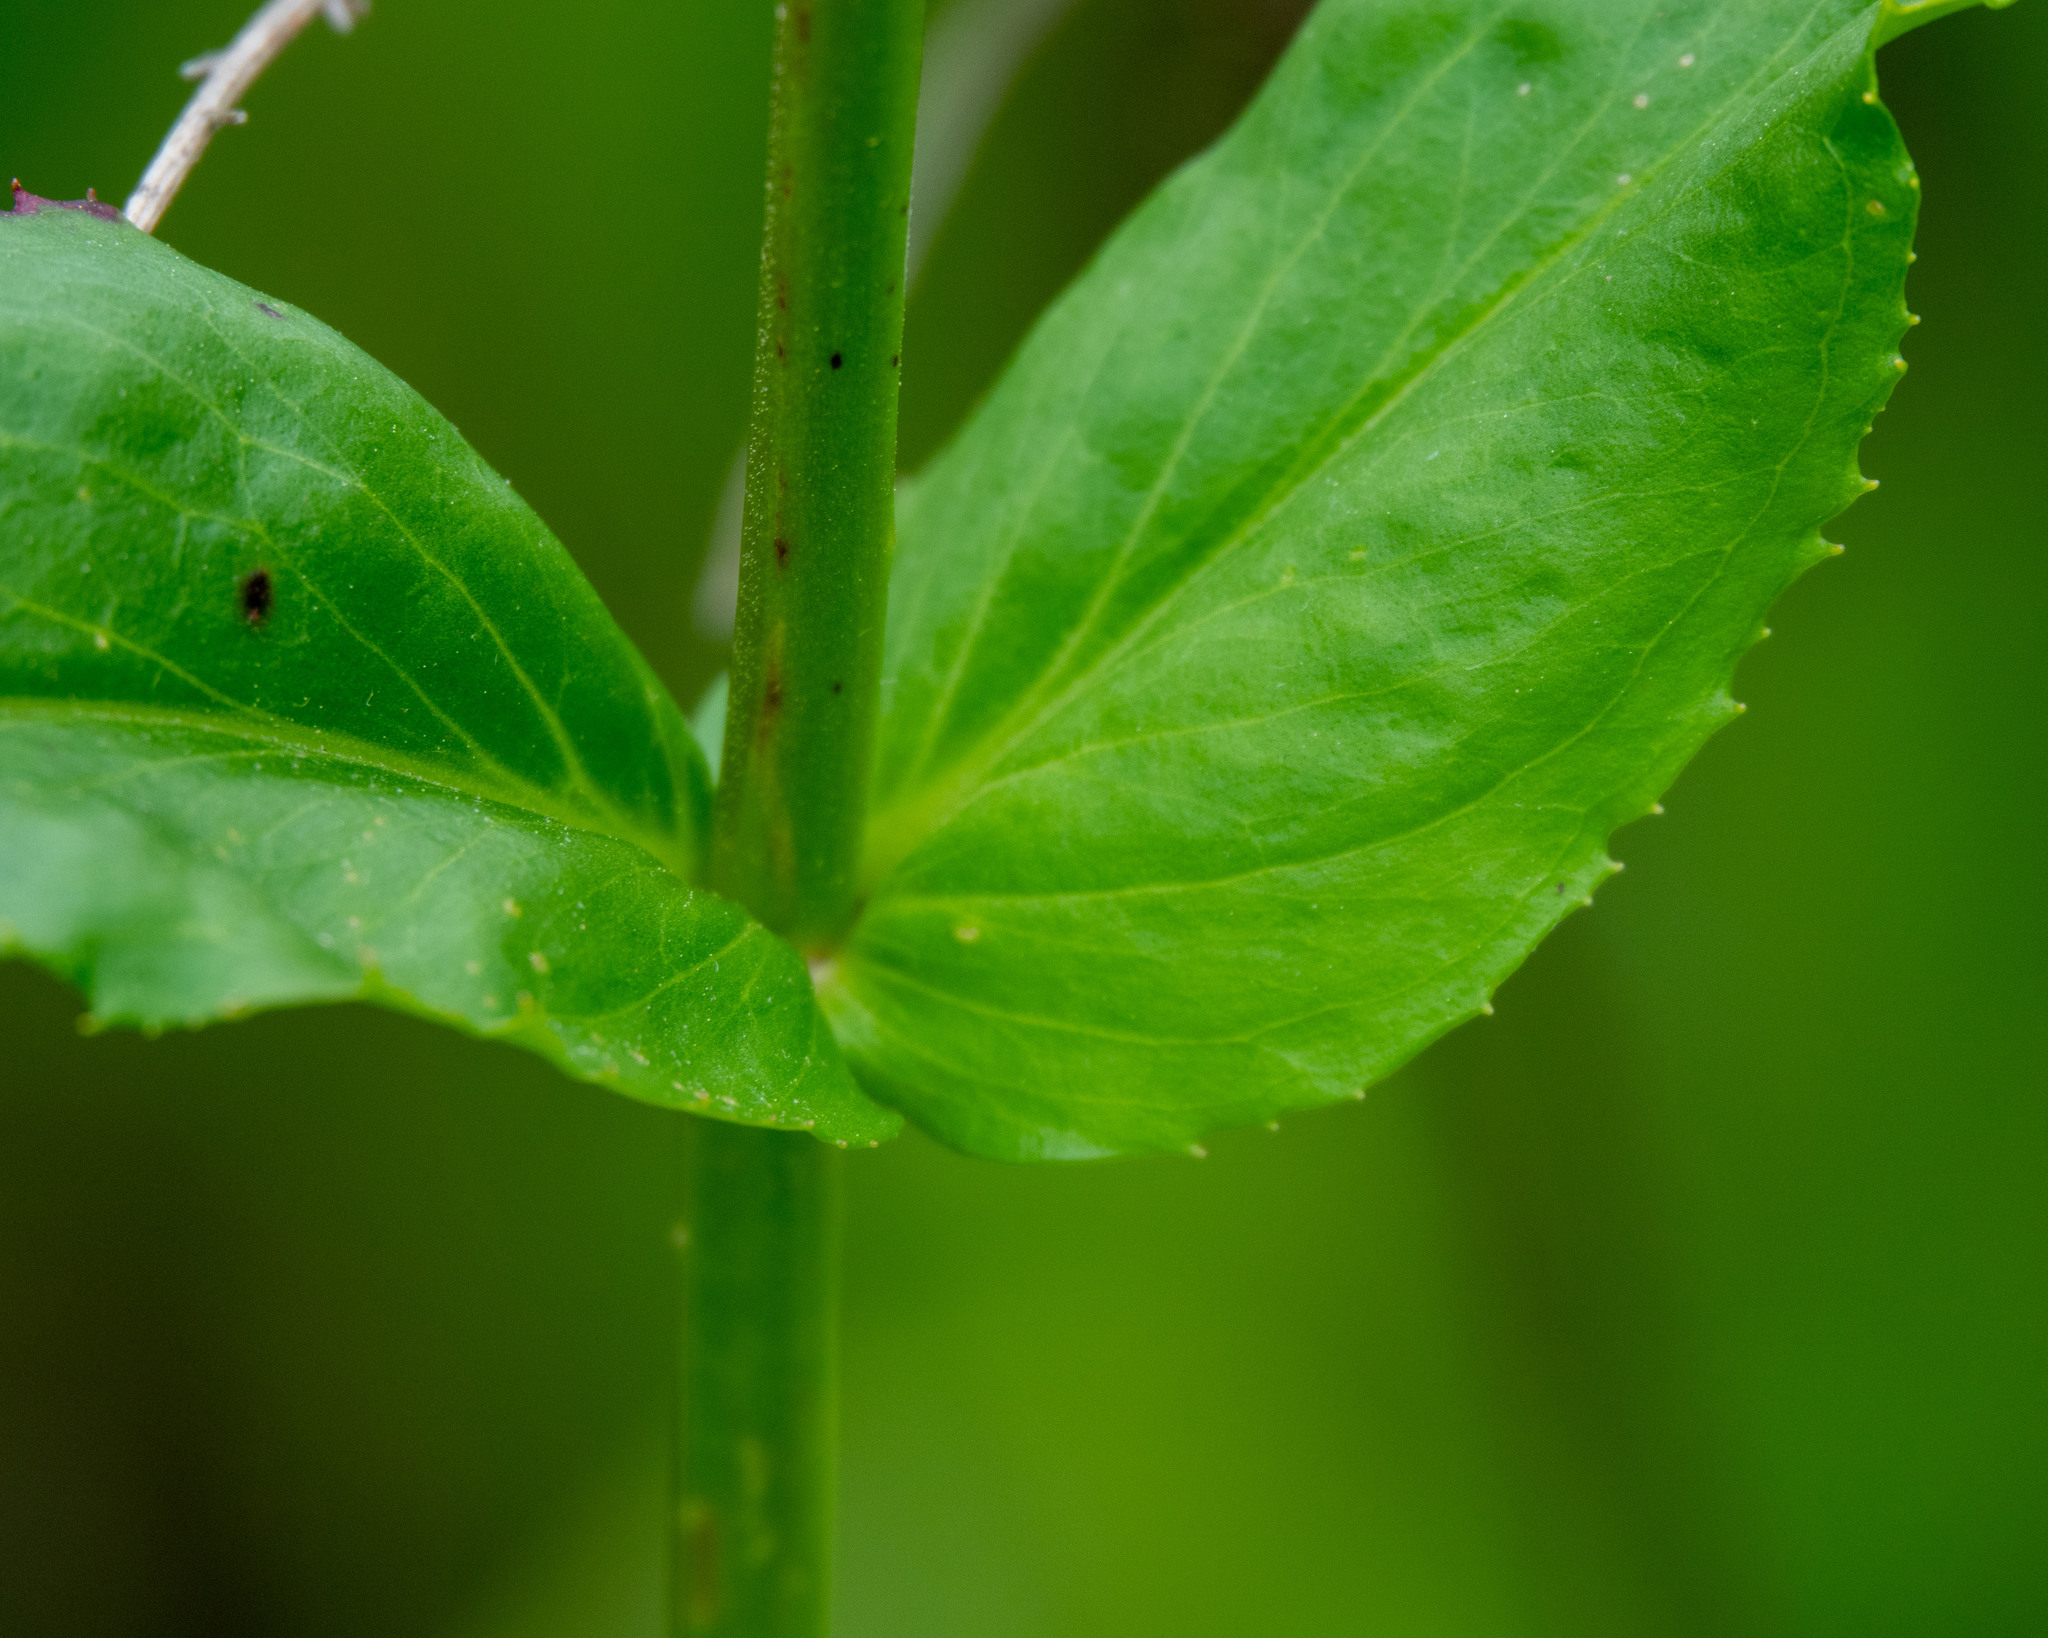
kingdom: Plantae
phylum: Tracheophyta
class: Magnoliopsida
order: Lamiales
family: Plantaginaceae
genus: Penstemon
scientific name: Penstemon digitalis
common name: Foxglove beardtongue
